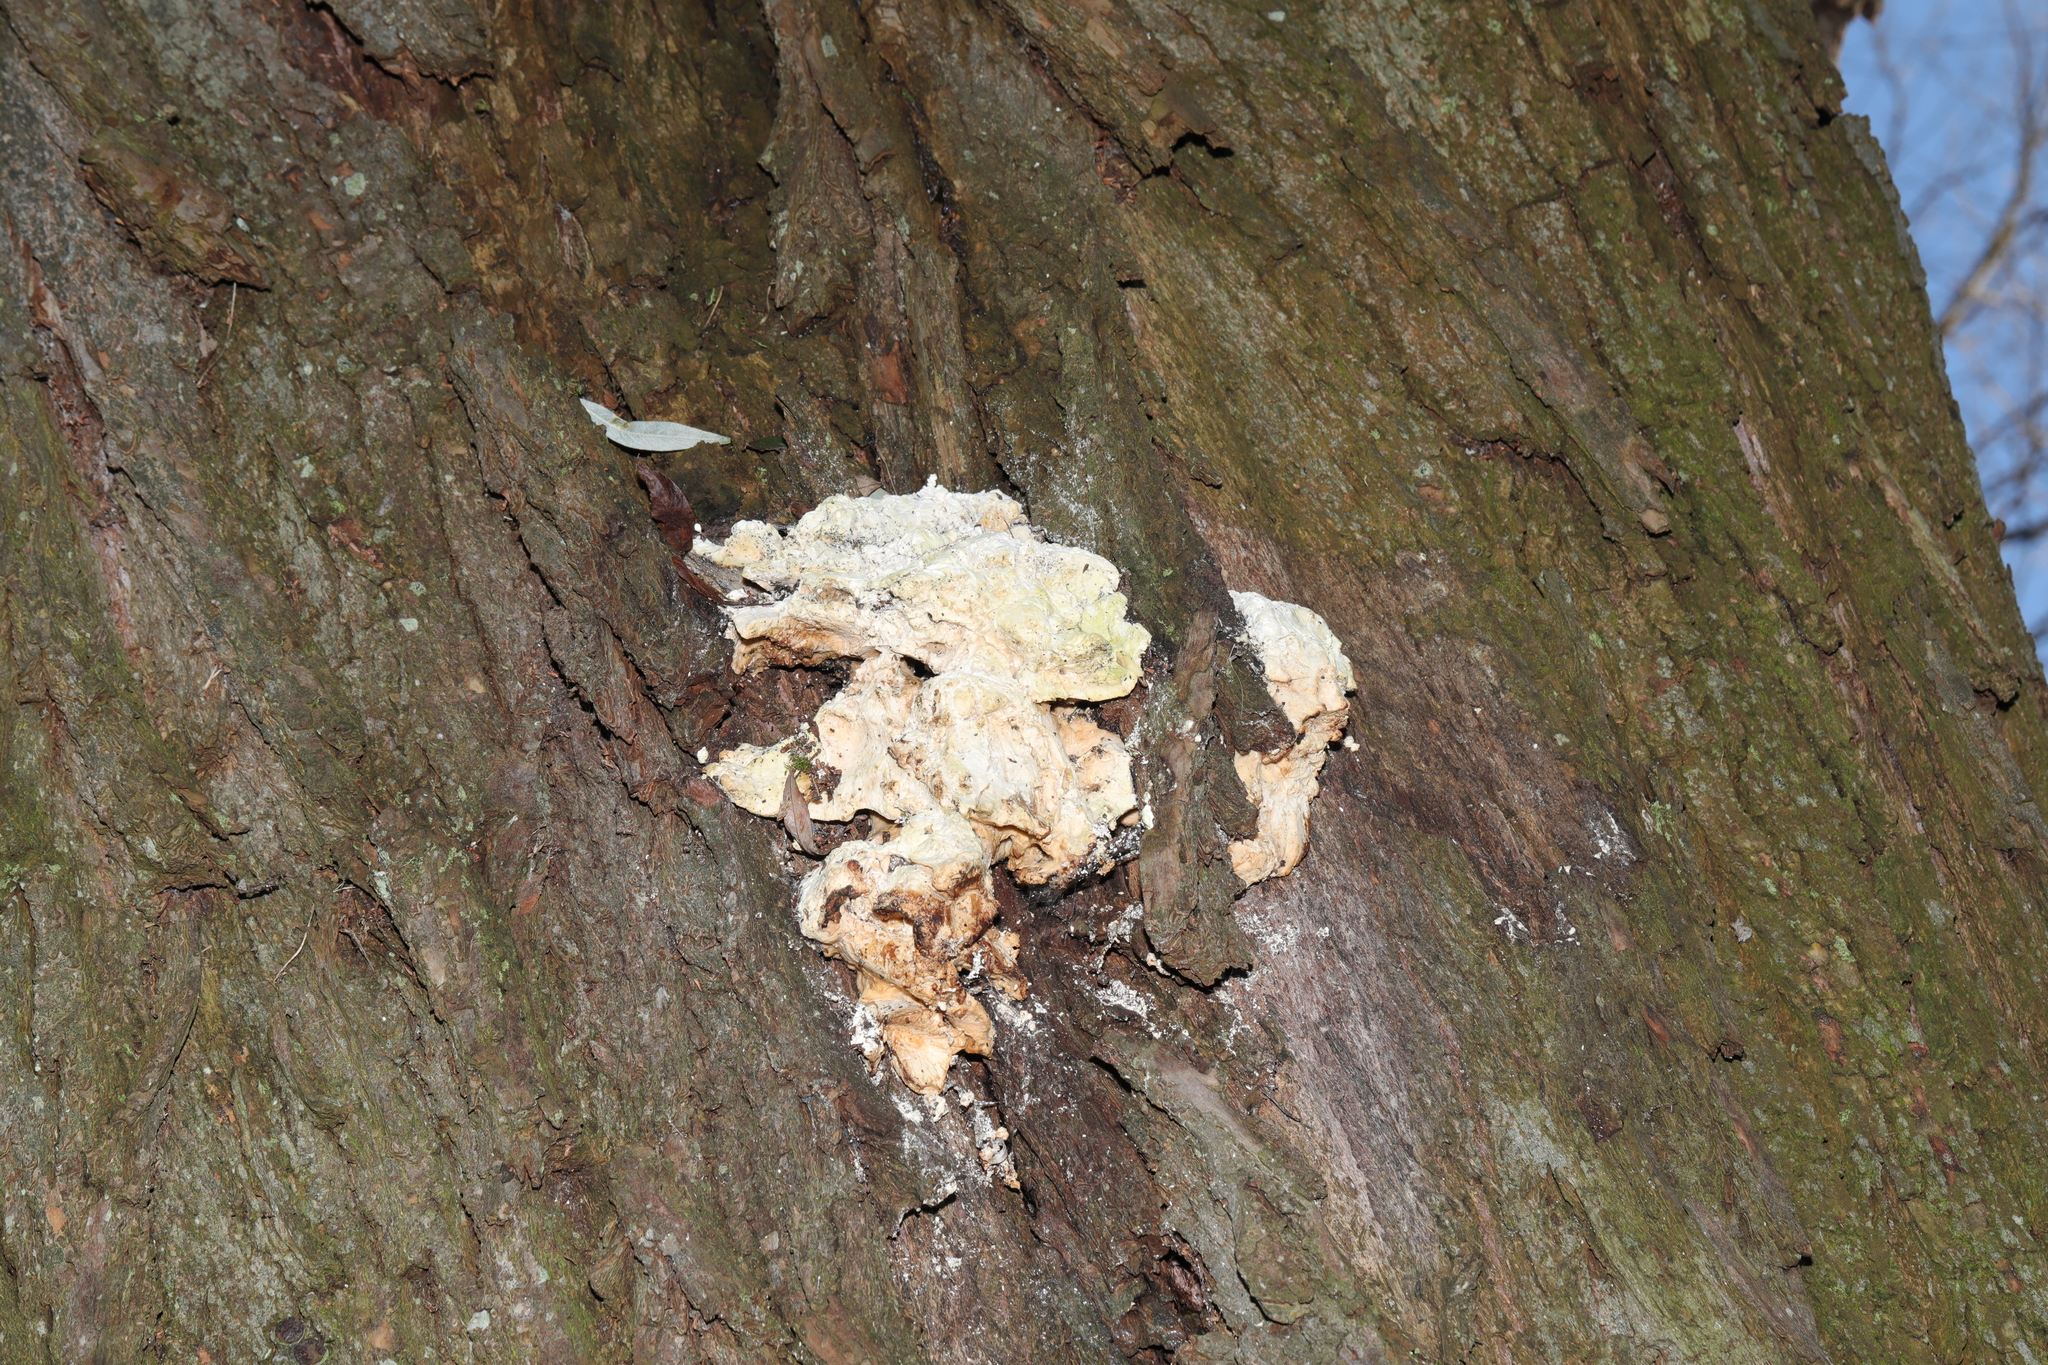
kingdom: Fungi
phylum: Basidiomycota
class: Agaricomycetes
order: Polyporales
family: Laetiporaceae
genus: Laetiporus
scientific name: Laetiporus sulphureus
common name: Chicken of the woods
